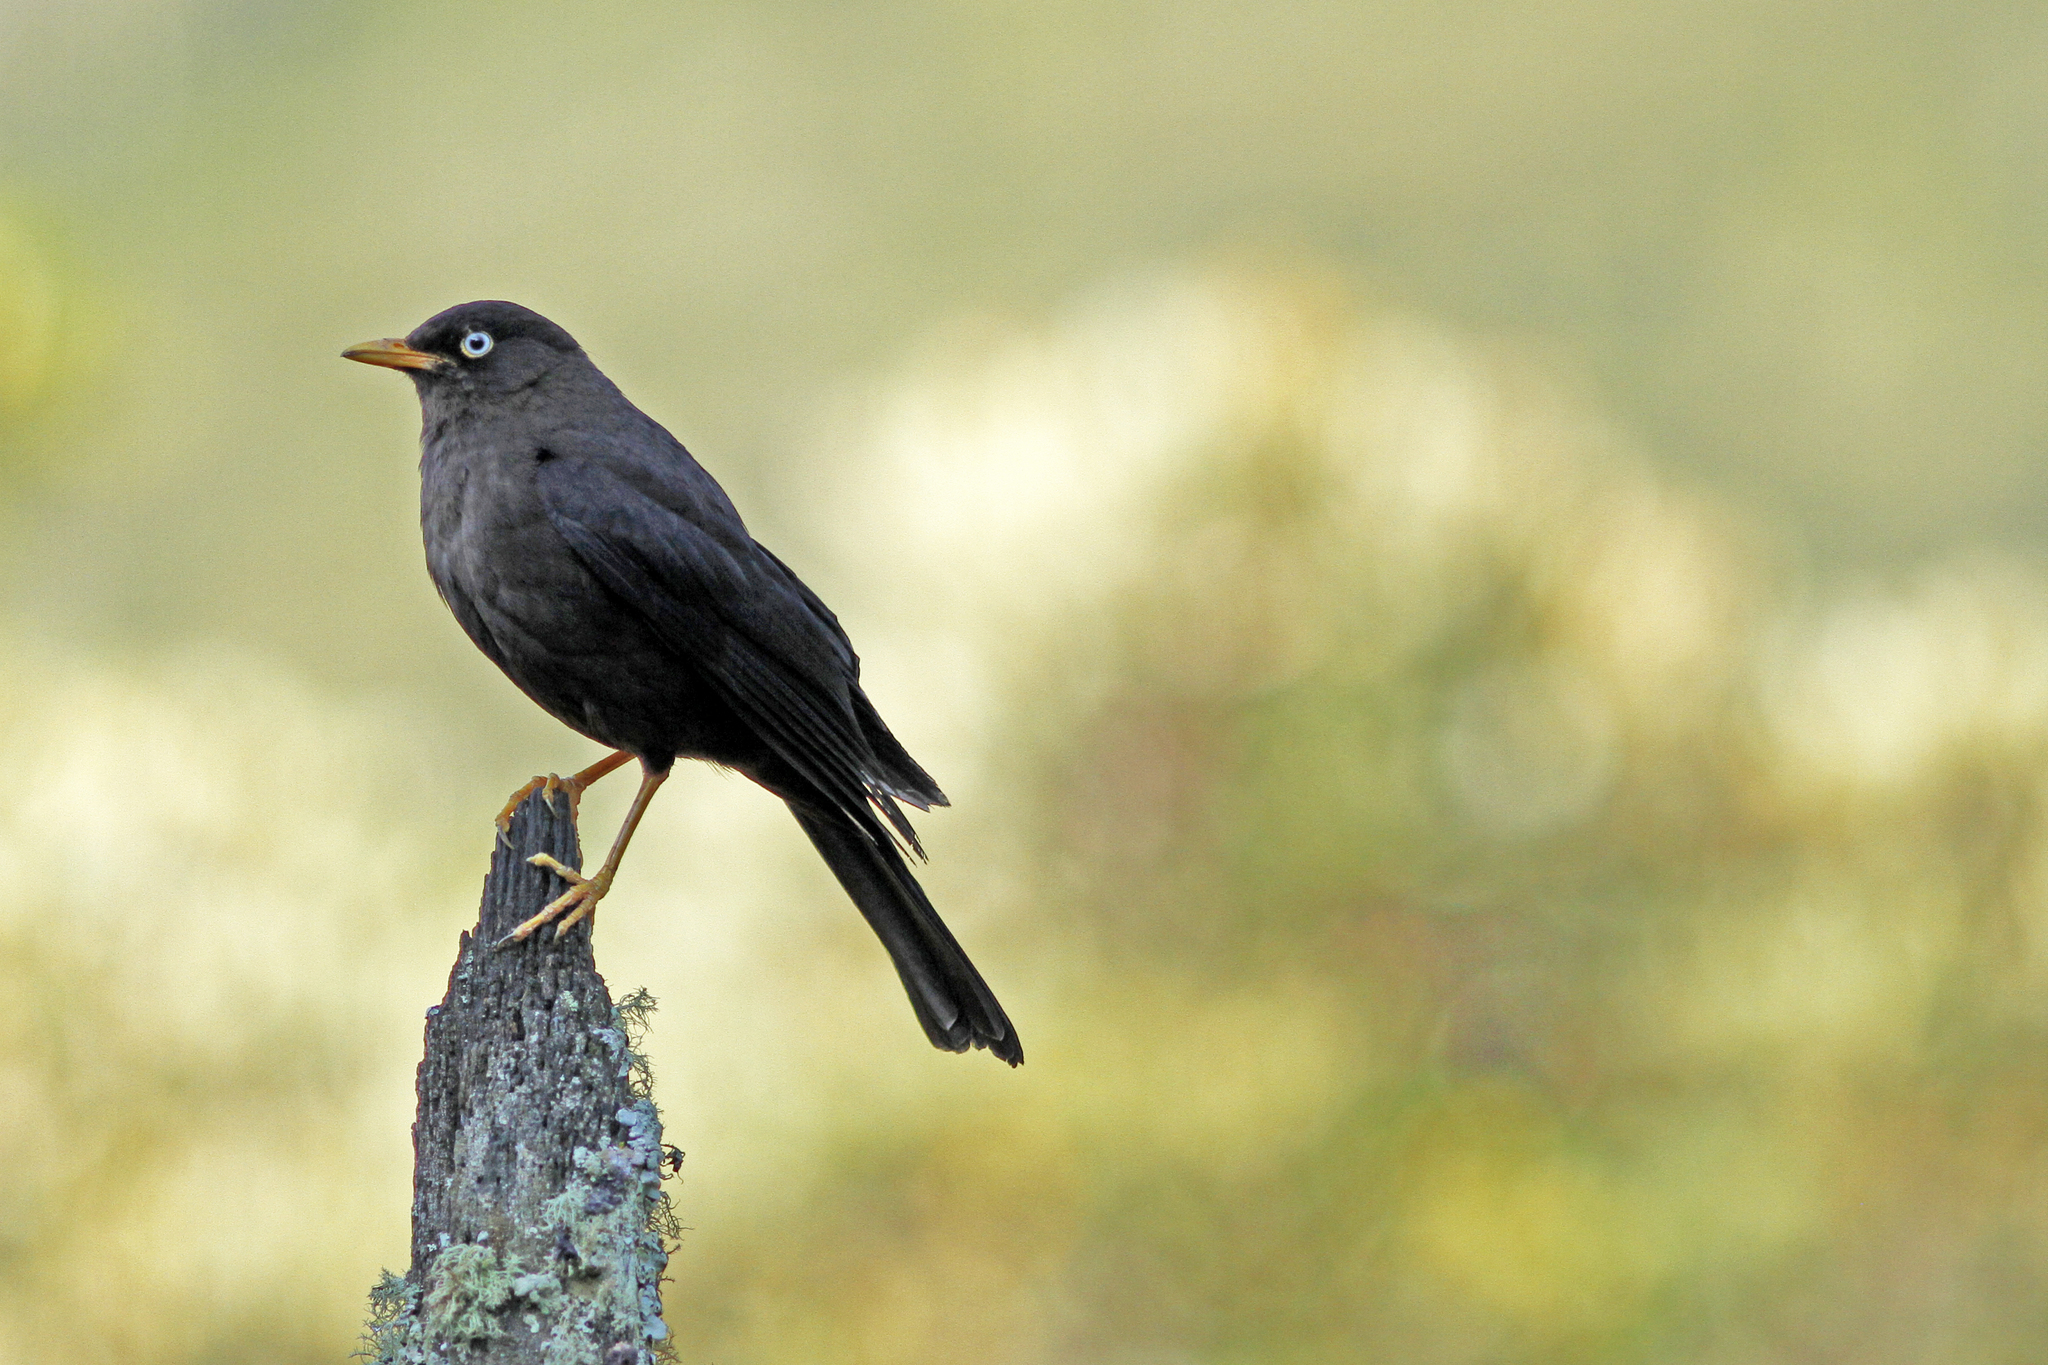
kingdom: Animalia
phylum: Chordata
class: Aves
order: Passeriformes
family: Turdidae
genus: Turdus
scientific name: Turdus nigrescens
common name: Sooty thrush
